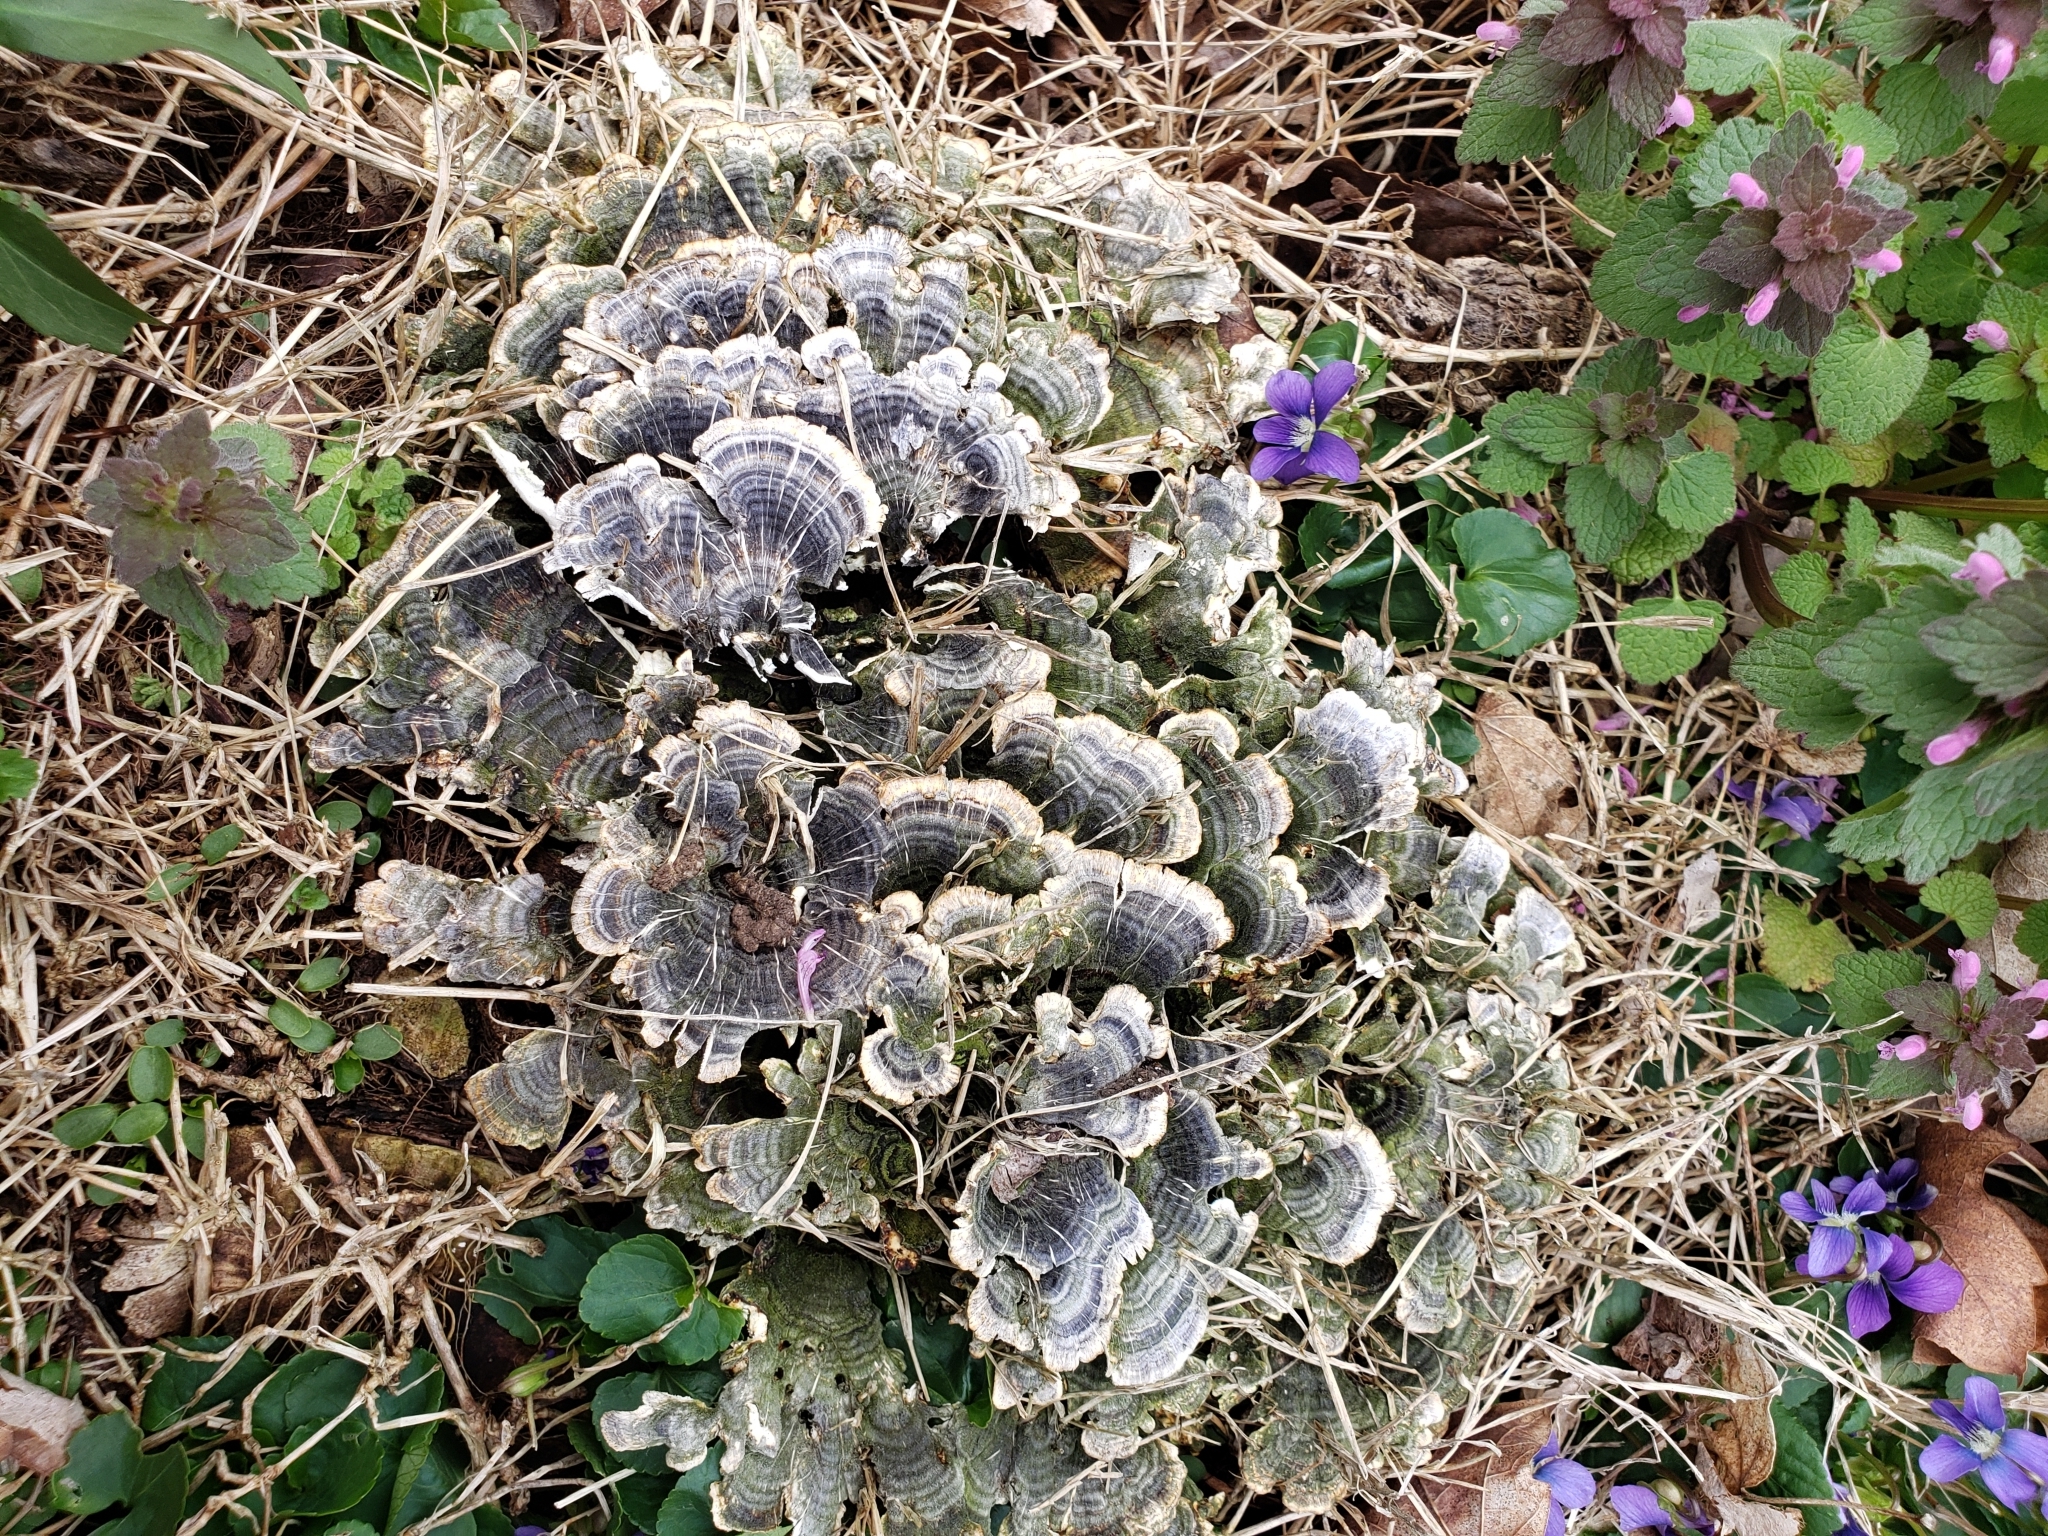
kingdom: Fungi
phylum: Basidiomycota
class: Agaricomycetes
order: Polyporales
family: Polyporaceae
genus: Trametes
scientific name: Trametes versicolor
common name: Turkeytail
